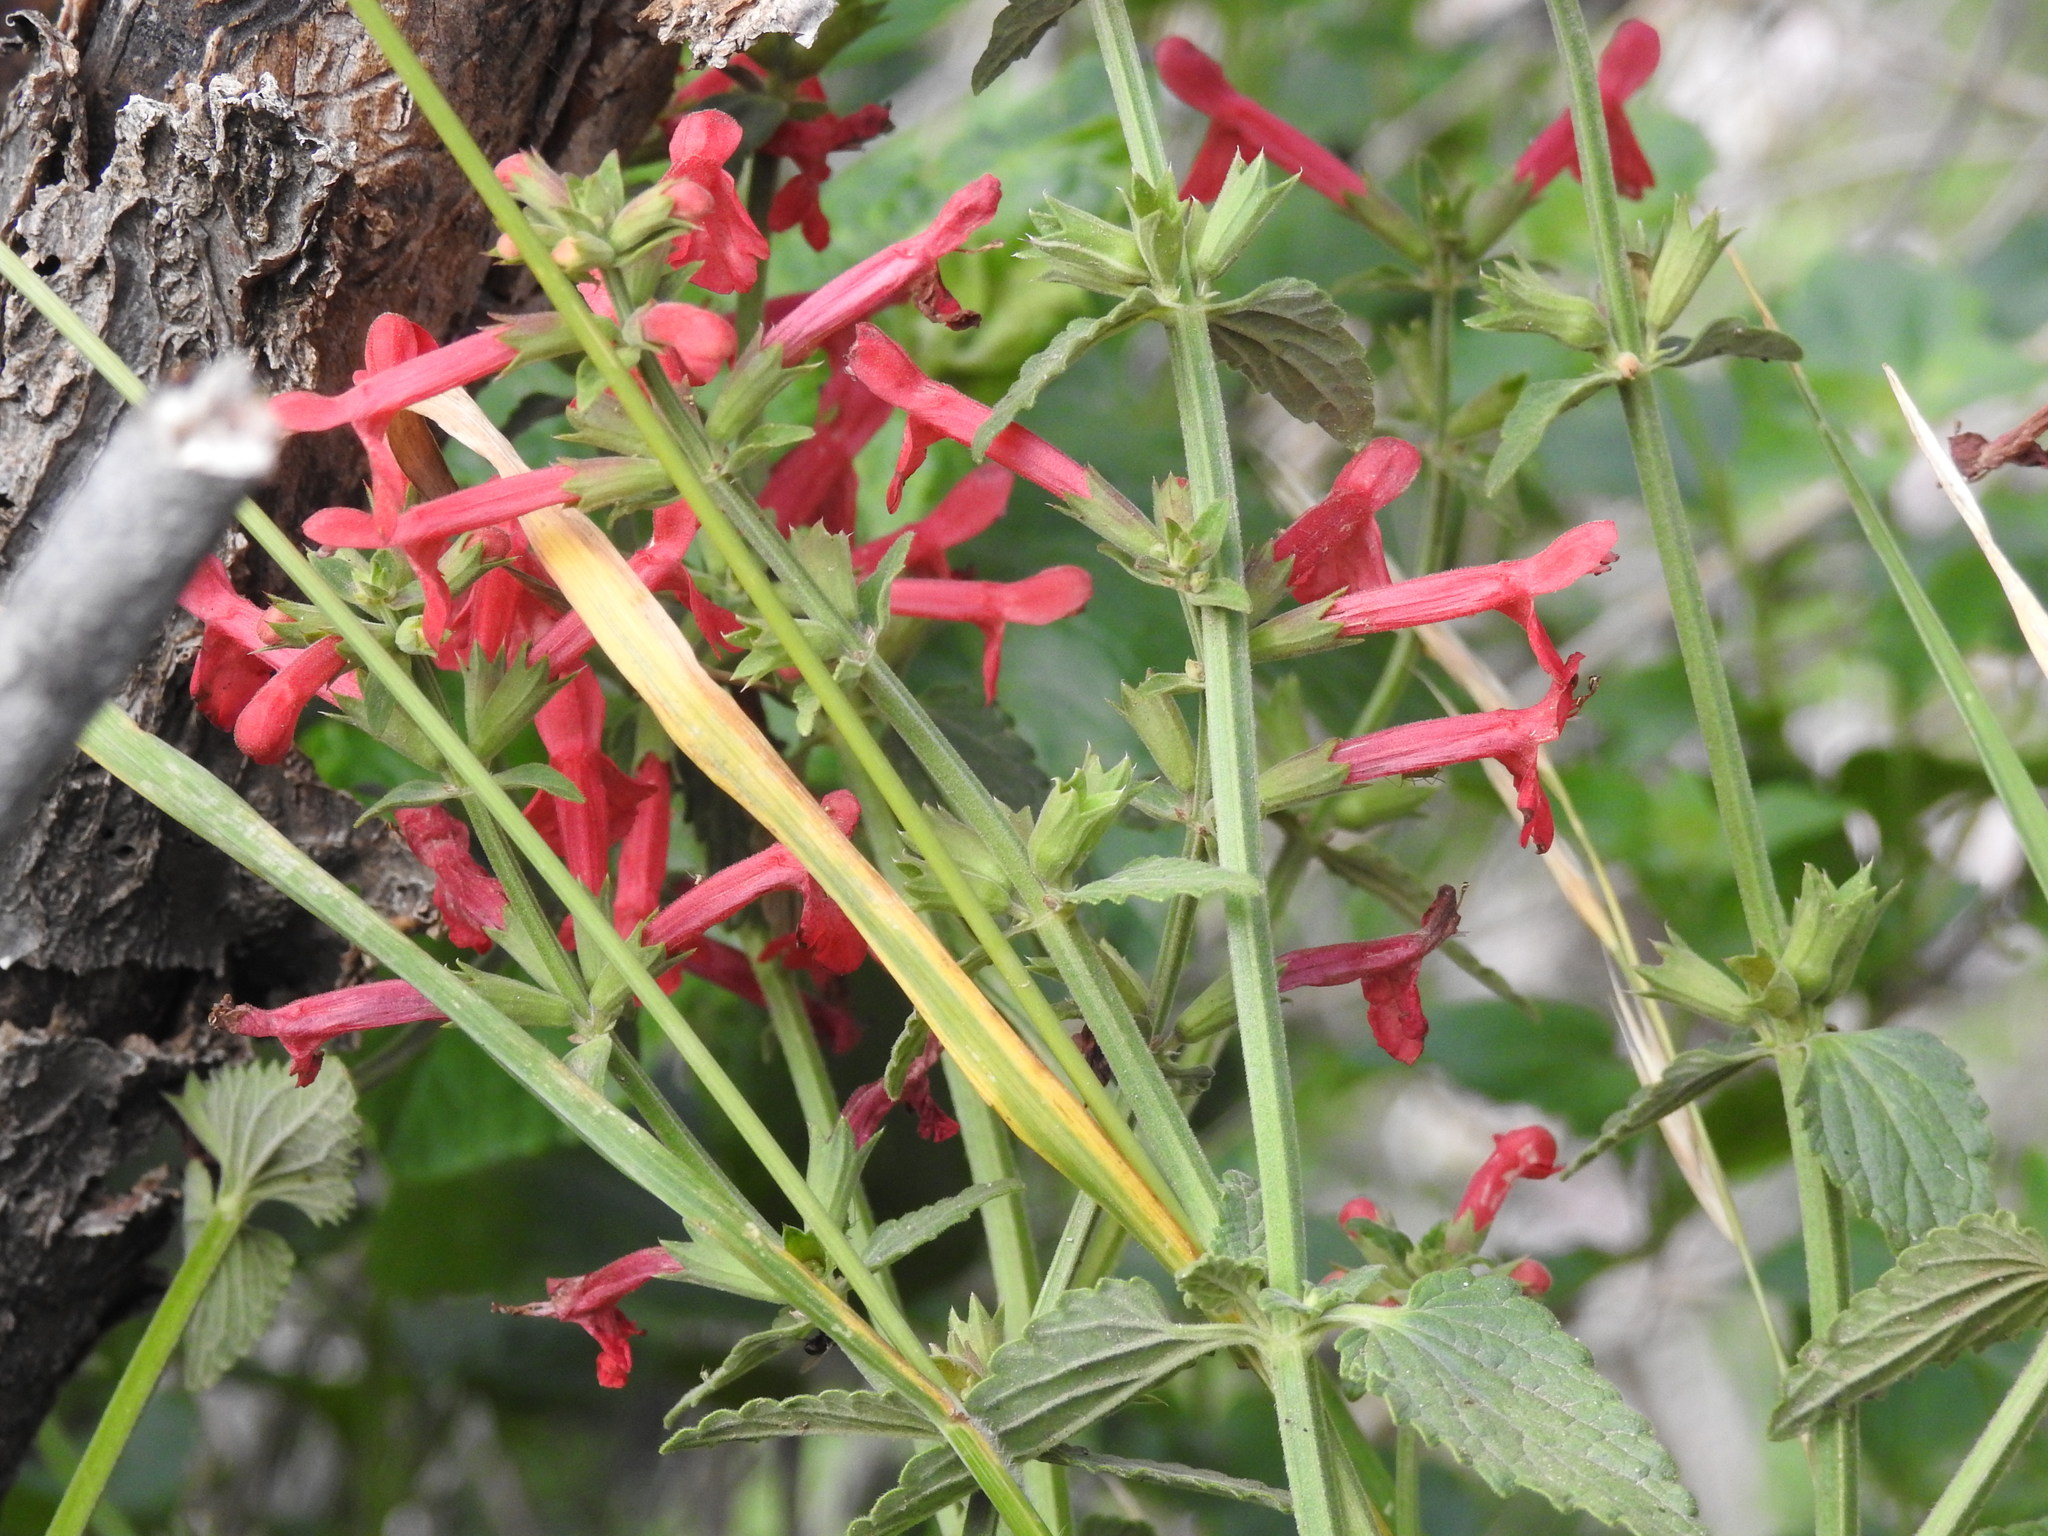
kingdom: Plantae
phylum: Tracheophyta
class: Magnoliopsida
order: Lamiales
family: Lamiaceae
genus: Stachys
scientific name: Stachys coccinea
